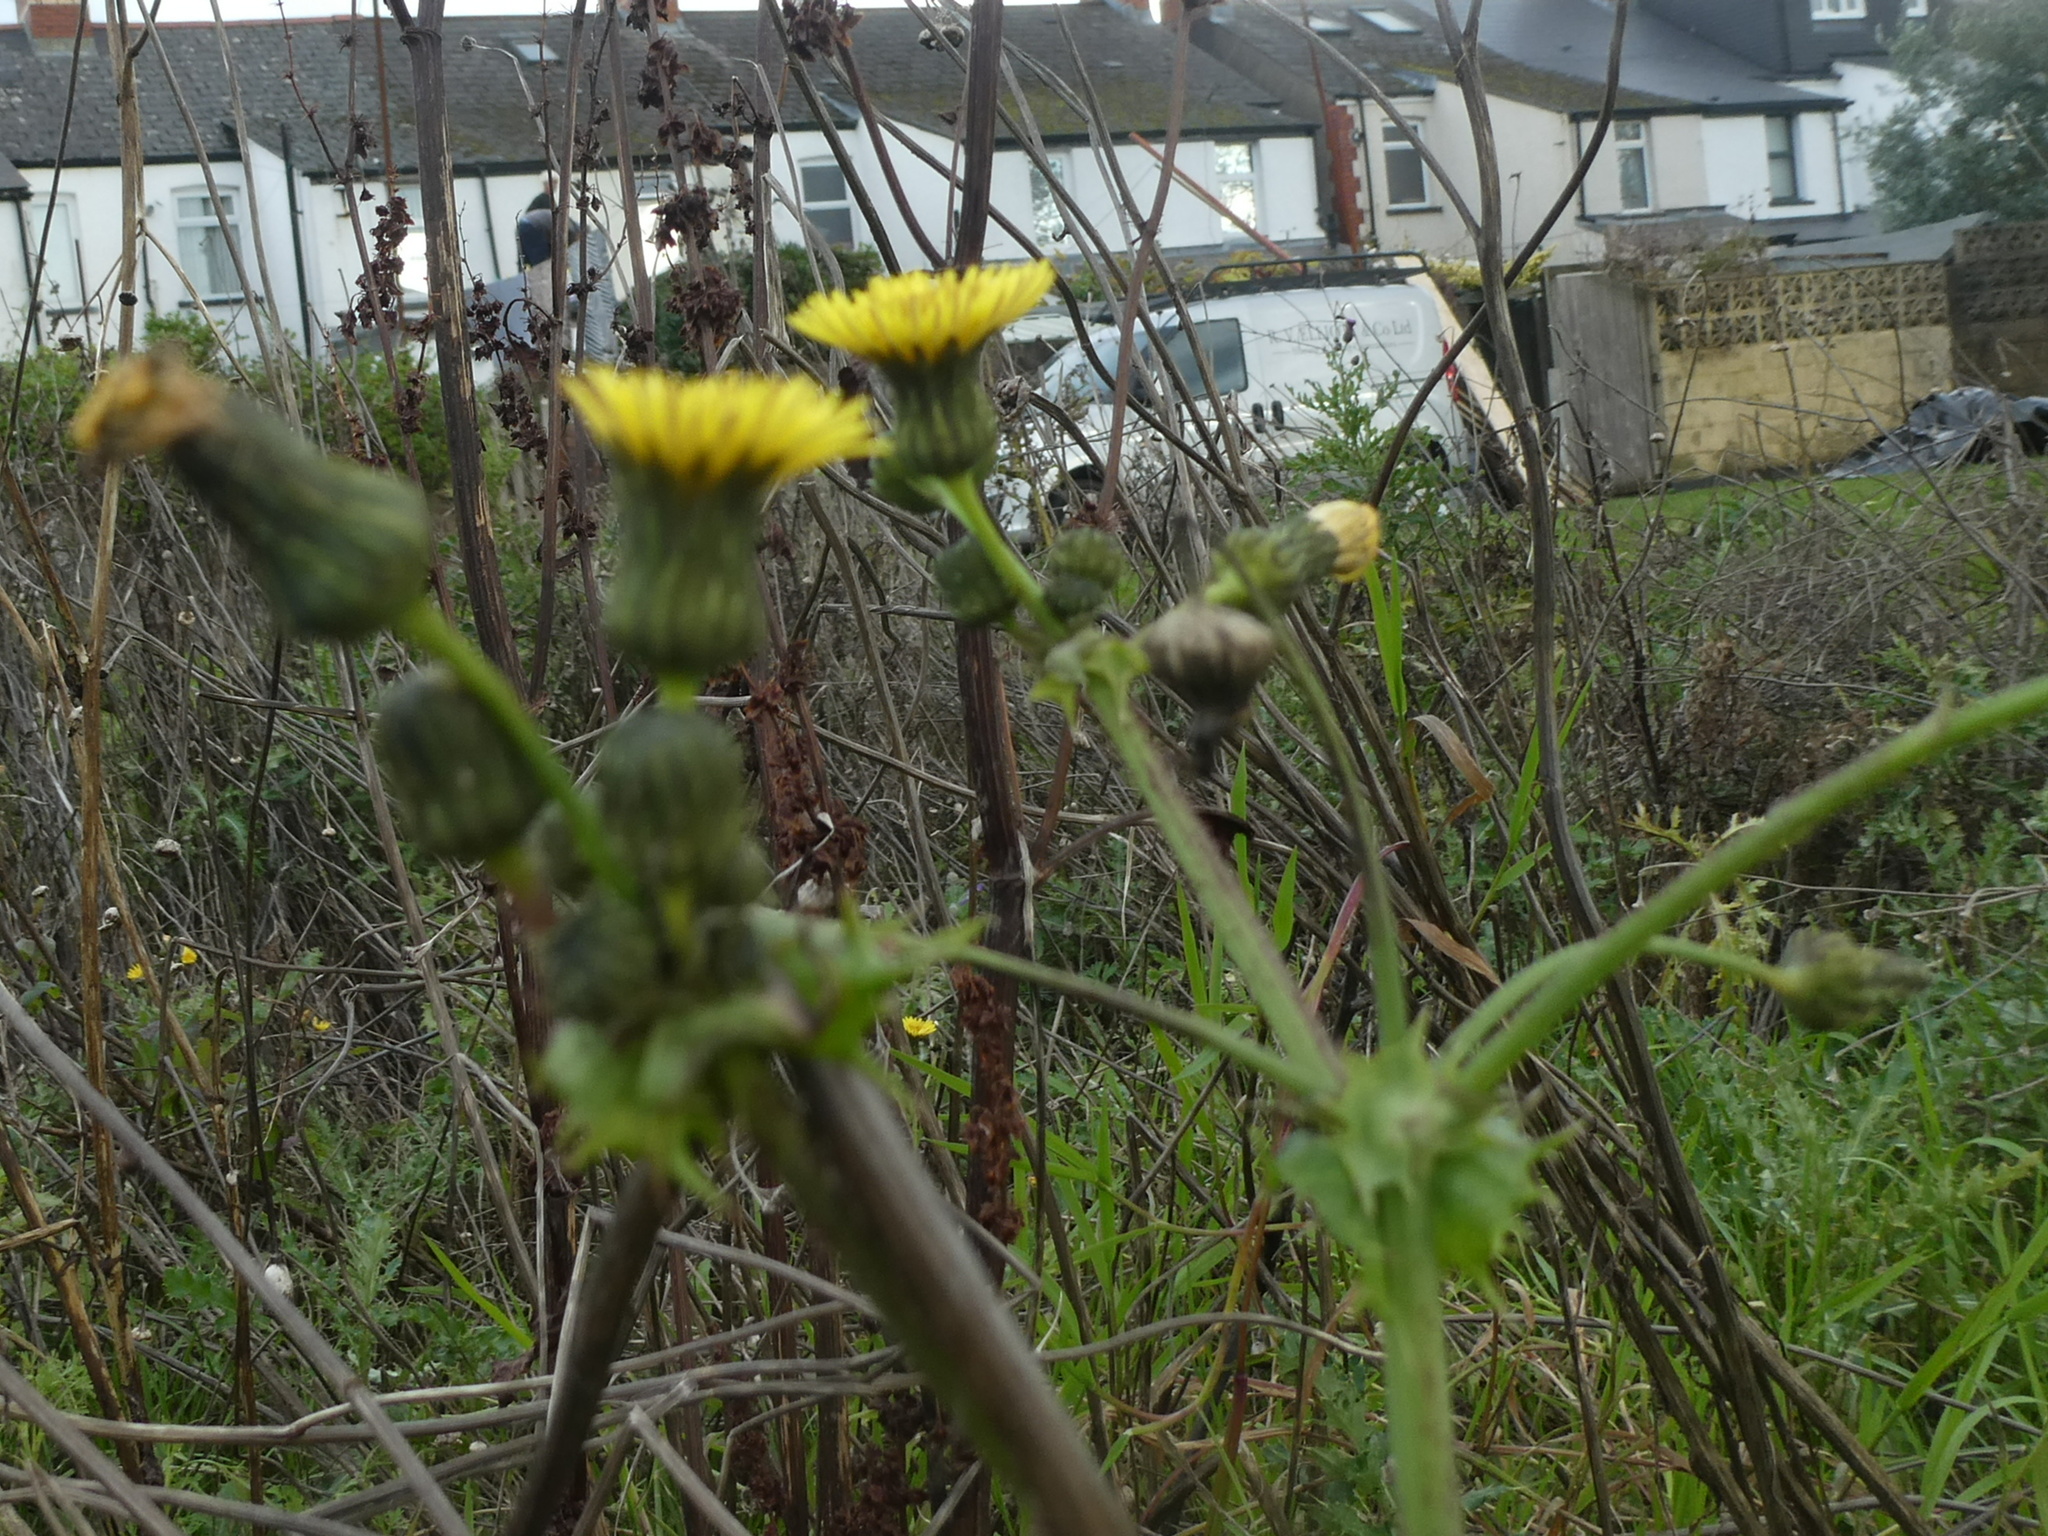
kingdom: Plantae
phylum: Tracheophyta
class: Magnoliopsida
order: Asterales
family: Asteraceae
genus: Sonchus
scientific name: Sonchus asper
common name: Prickly sow-thistle
